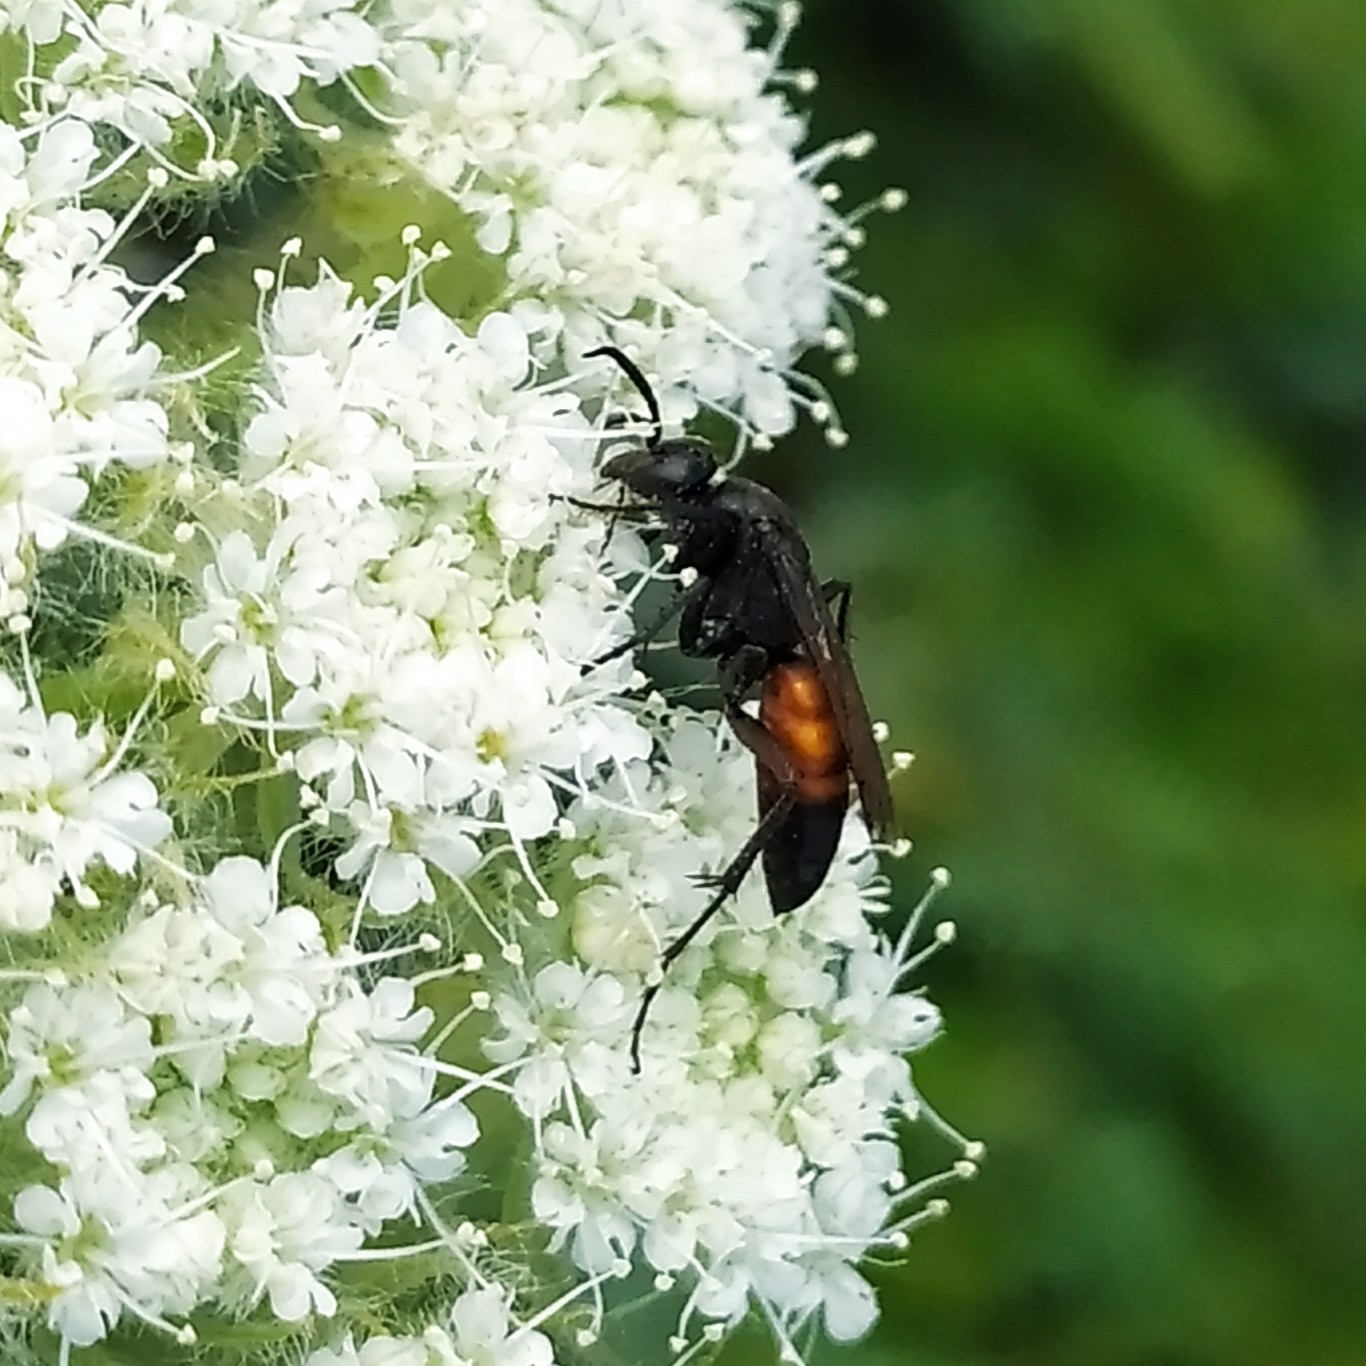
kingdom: Animalia
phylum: Arthropoda
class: Insecta
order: Hymenoptera
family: Pompilidae
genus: Anoplius
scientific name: Anoplius infuscatus
